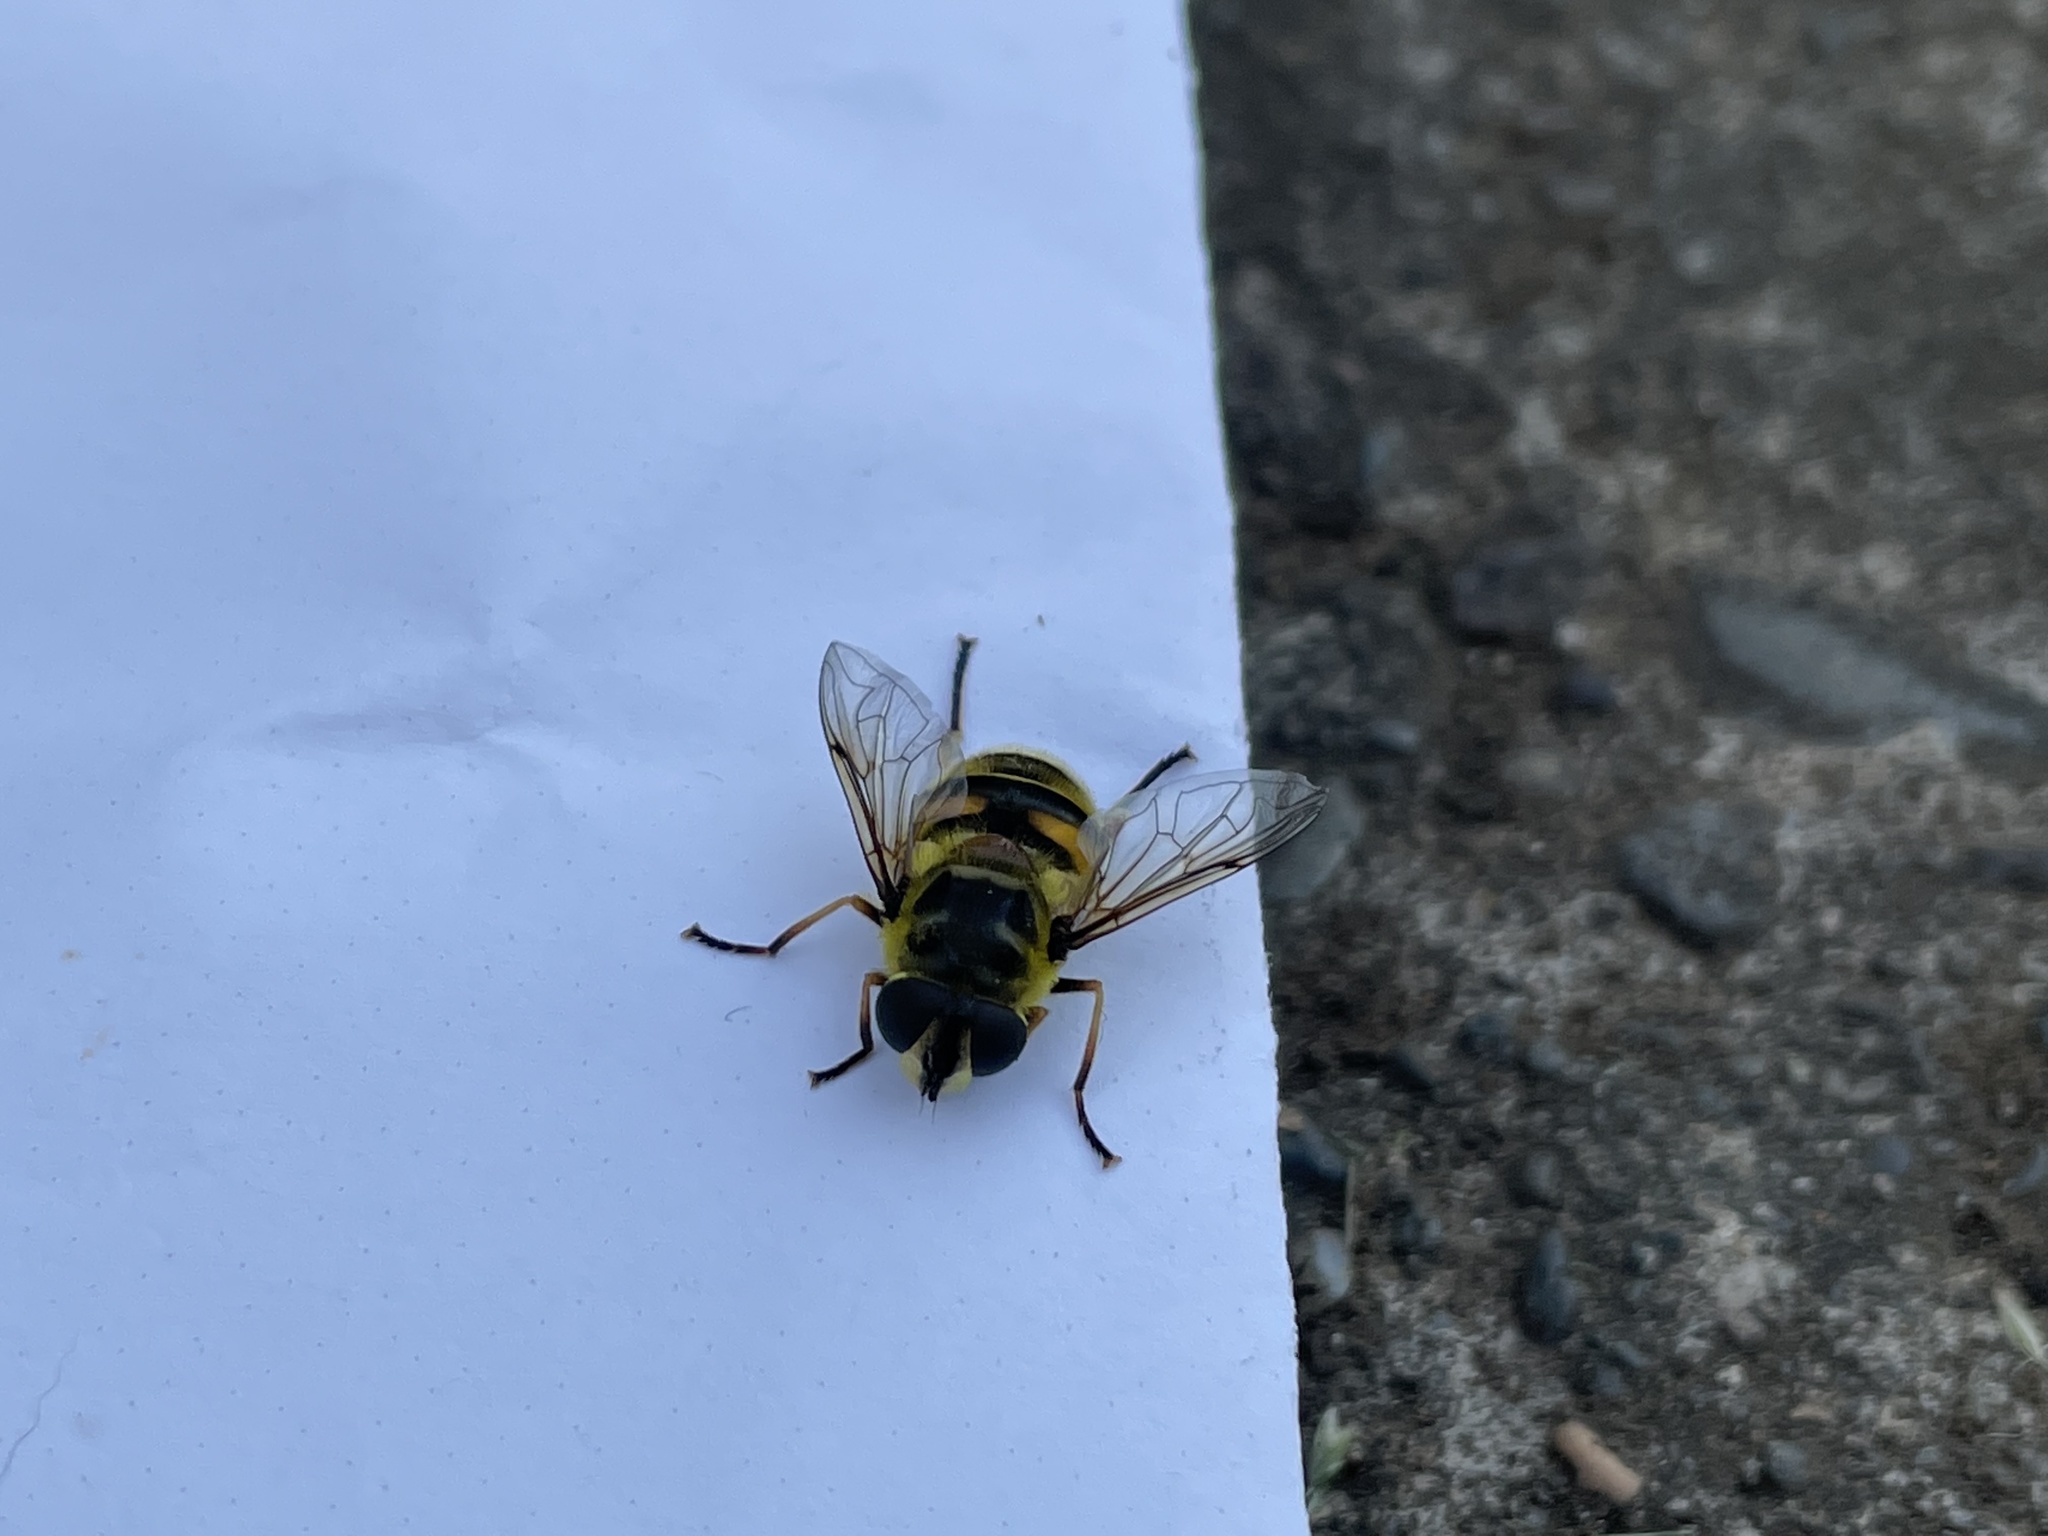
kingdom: Animalia
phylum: Arthropoda
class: Insecta
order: Diptera
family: Syrphidae
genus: Myathropa
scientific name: Myathropa florea
